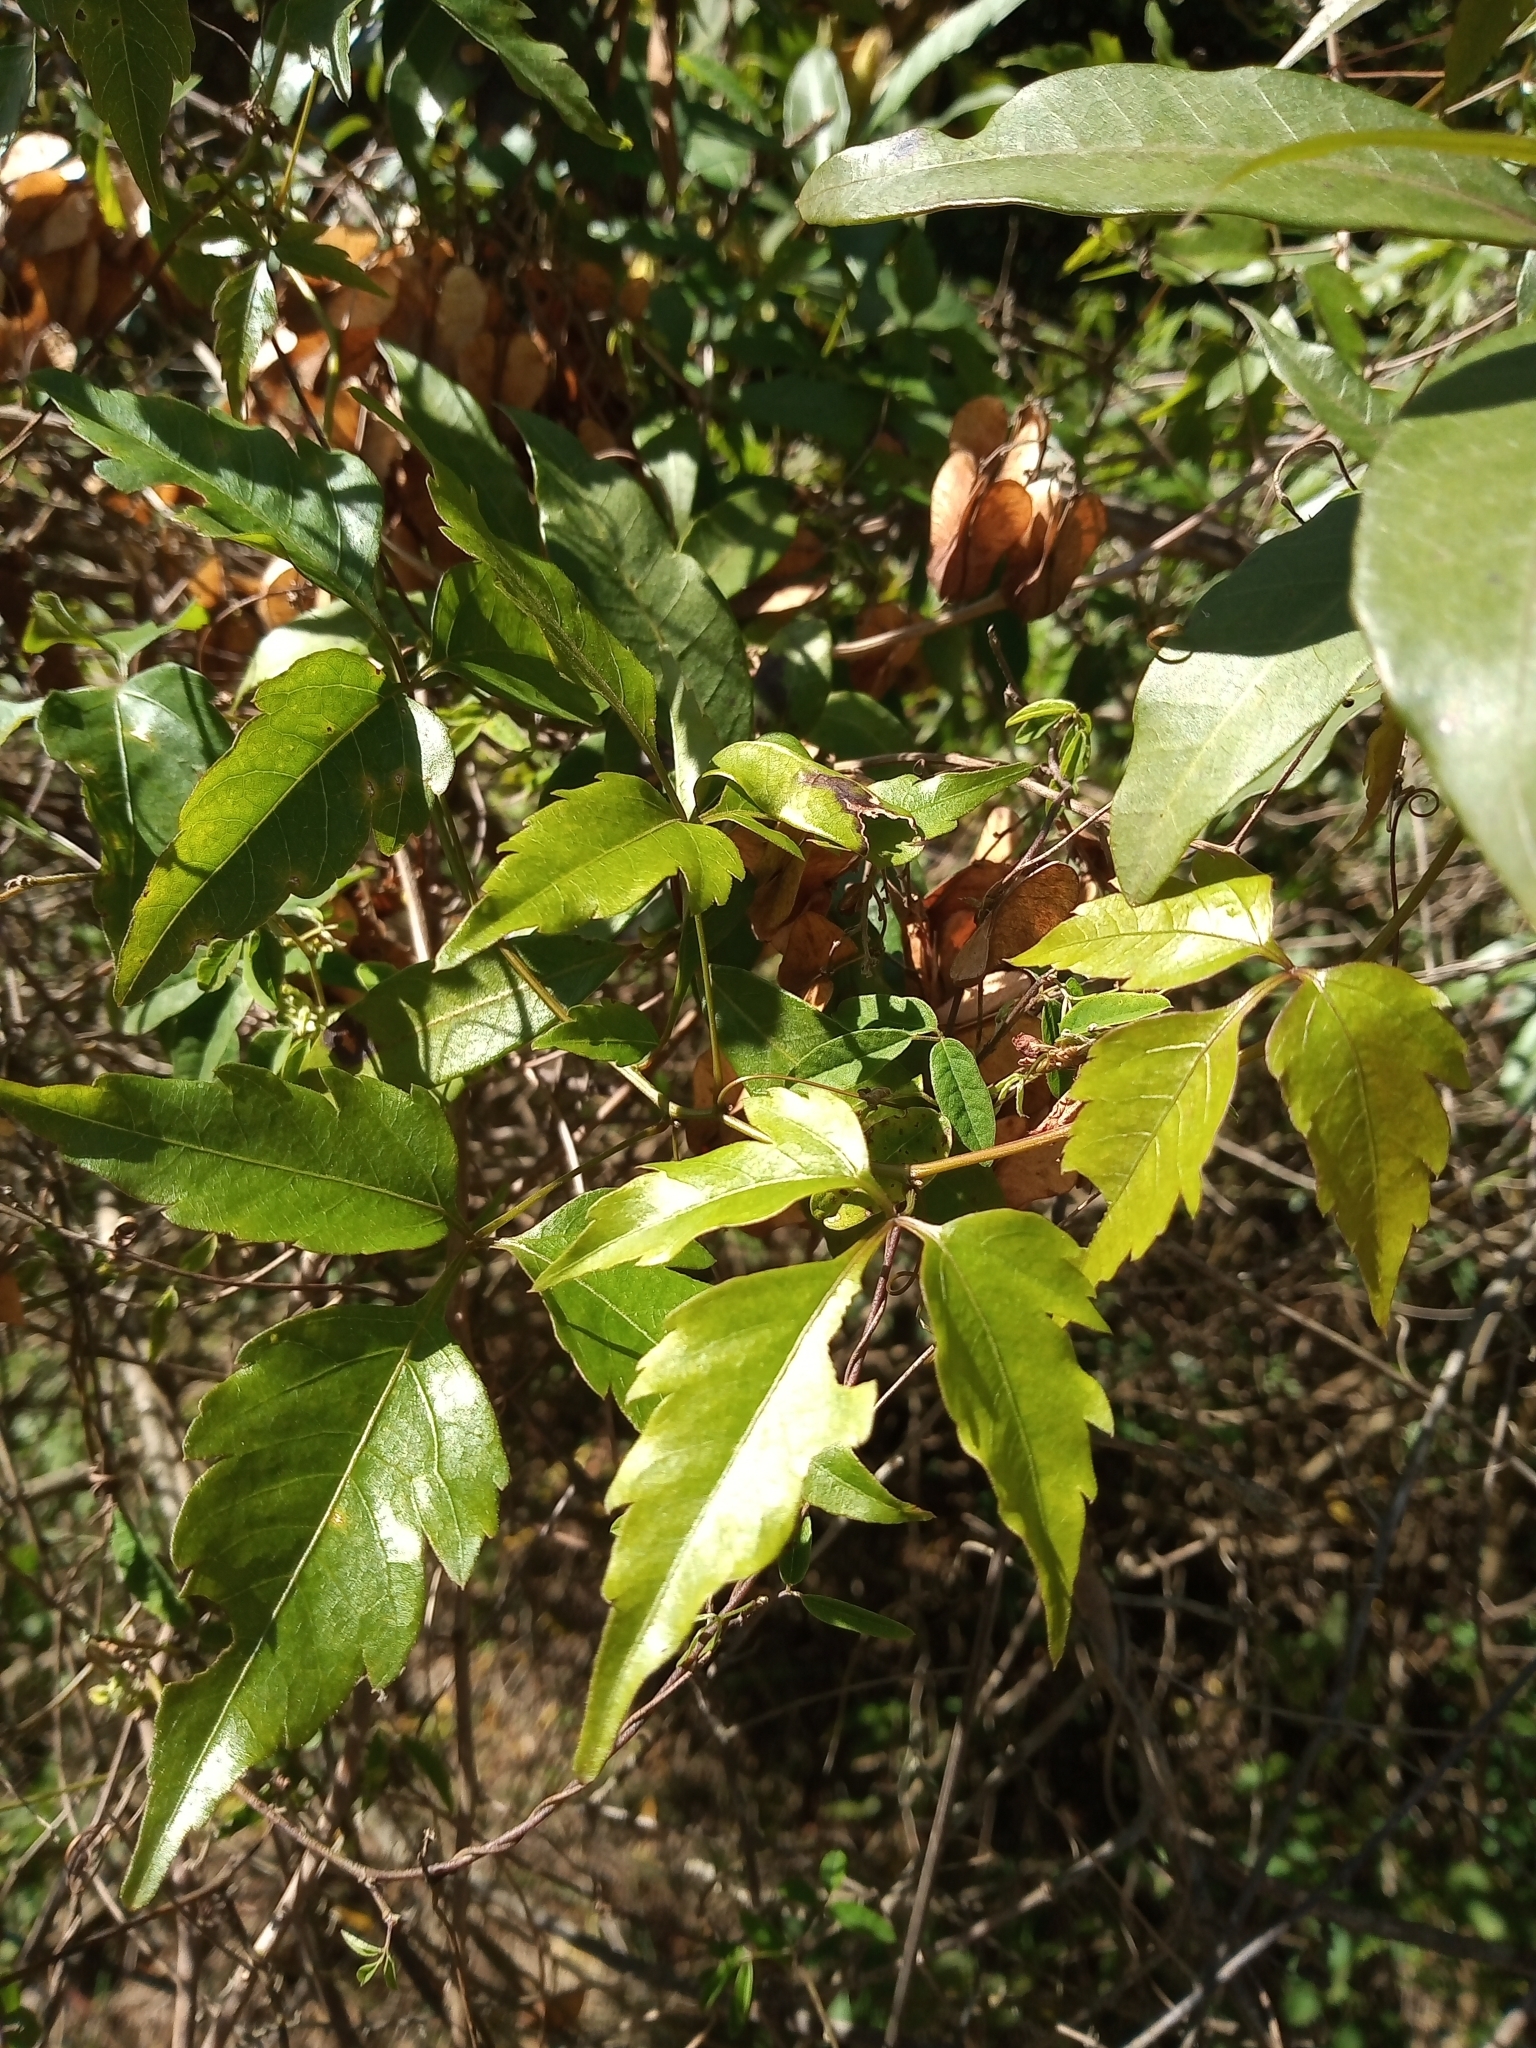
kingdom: Plantae
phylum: Tracheophyta
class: Magnoliopsida
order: Sapindales
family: Sapindaceae
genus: Serjania
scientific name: Serjania hebecarpa
